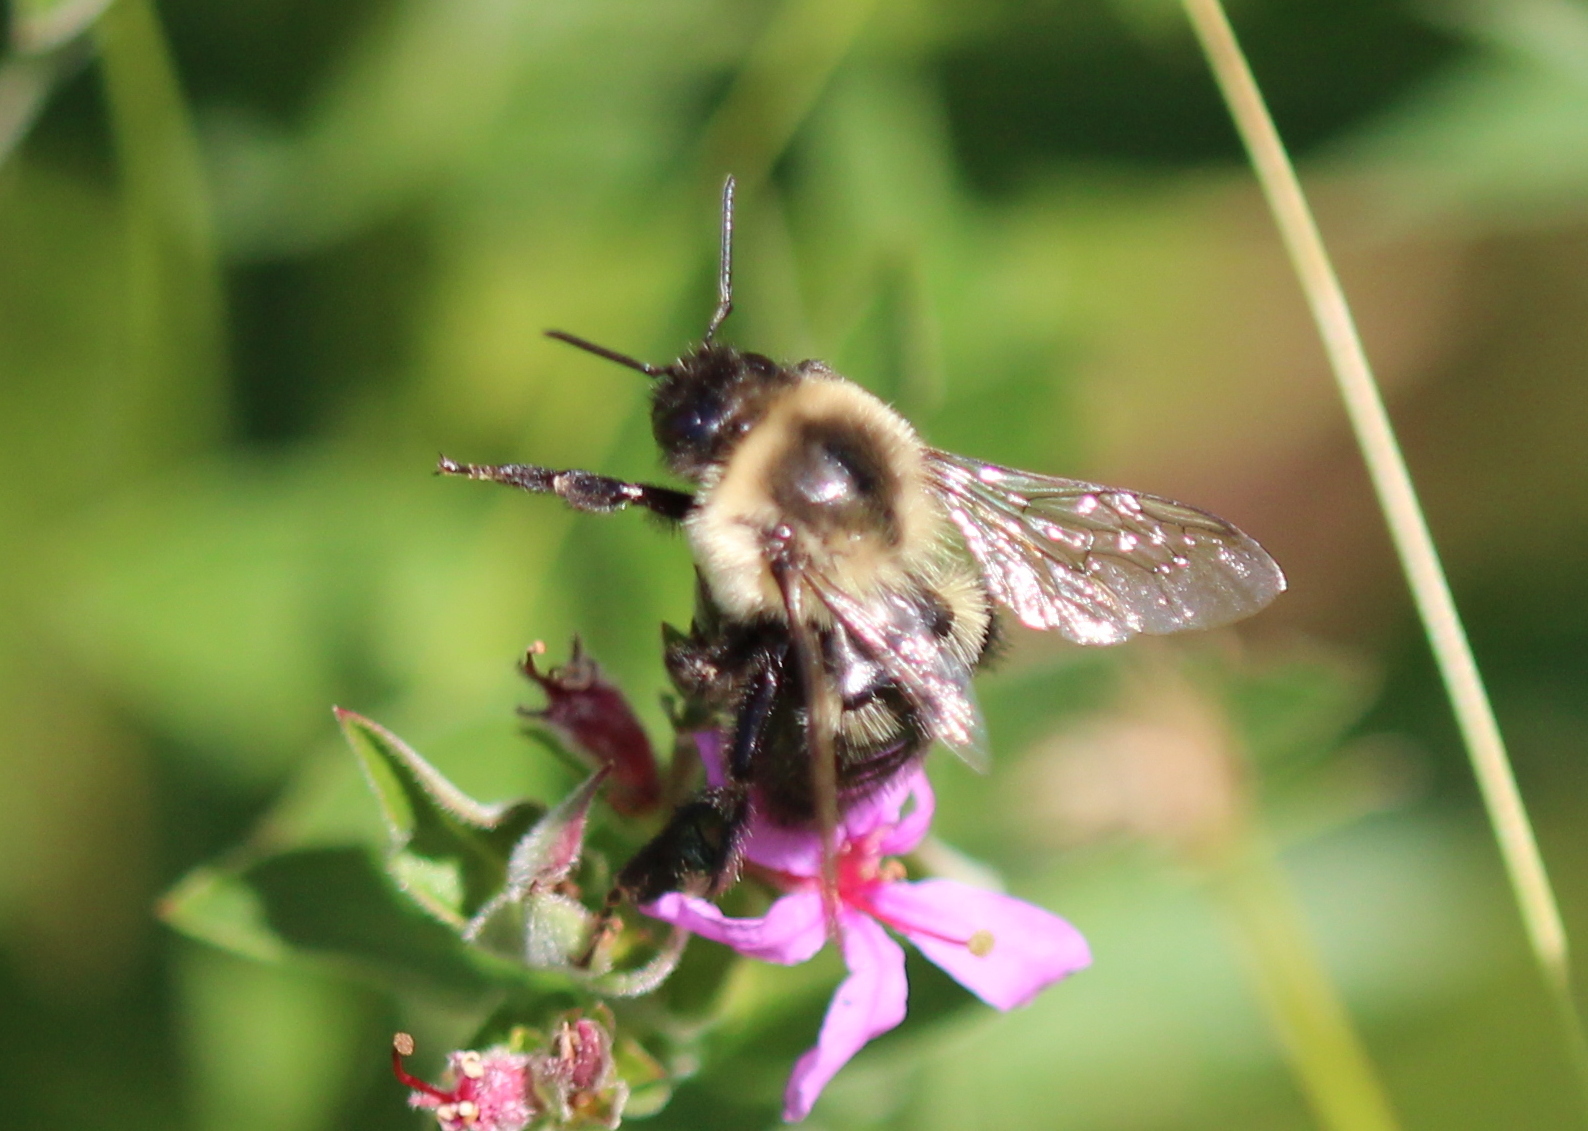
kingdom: Animalia
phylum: Arthropoda
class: Insecta
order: Hymenoptera
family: Apidae
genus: Bombus
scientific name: Bombus impatiens
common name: Common eastern bumble bee
